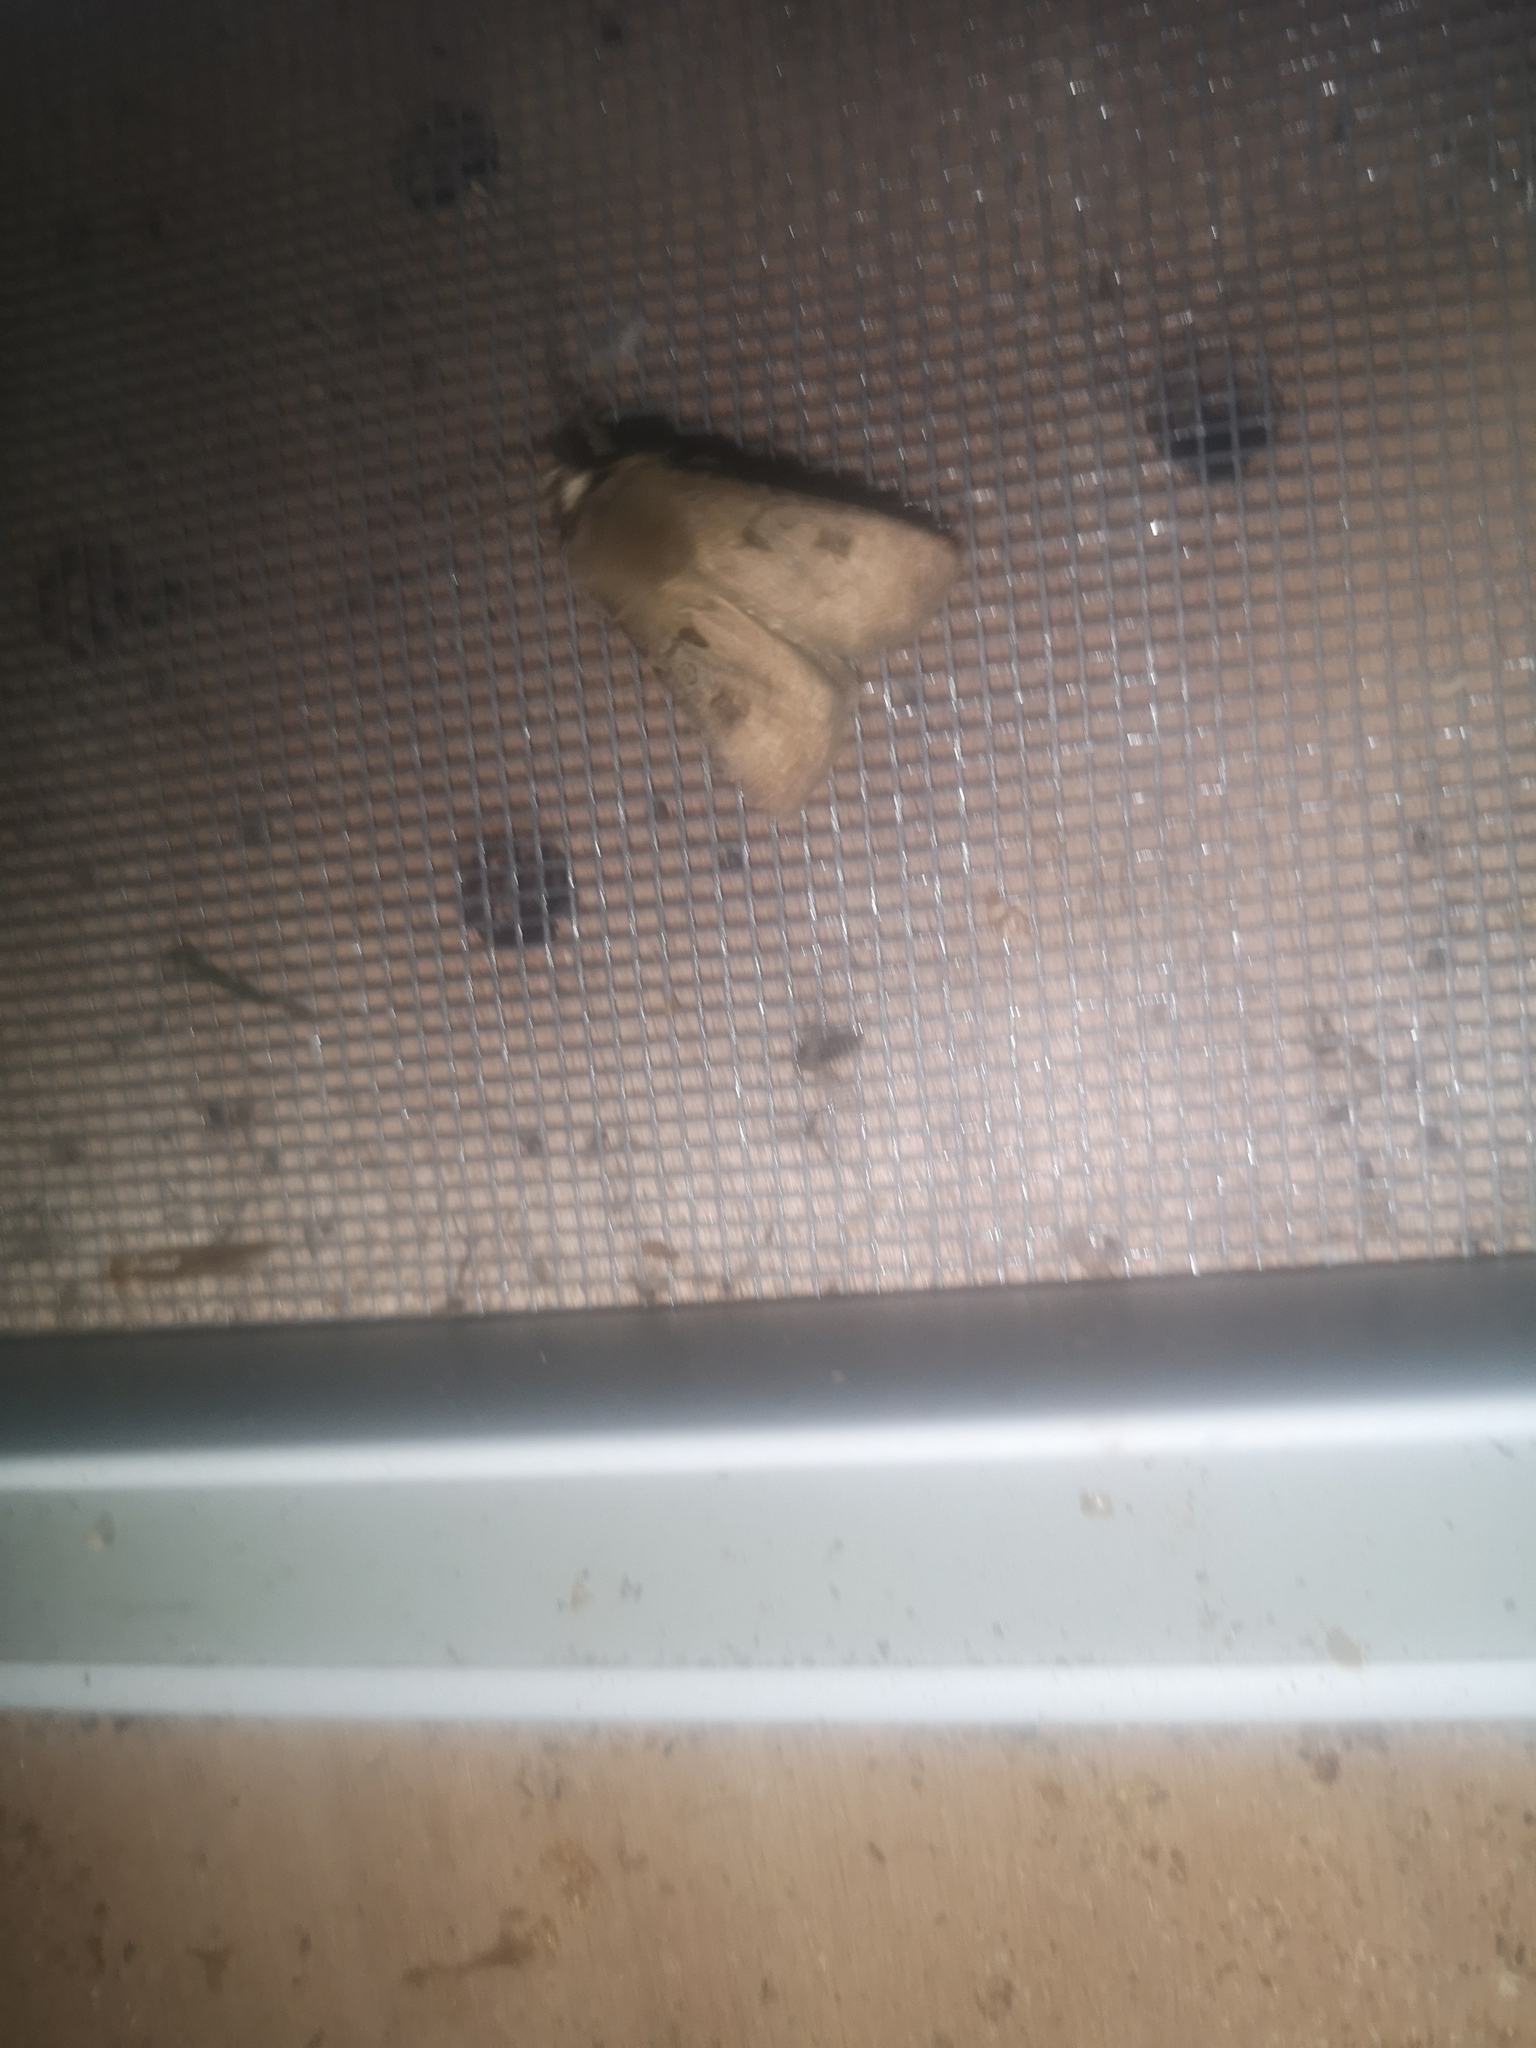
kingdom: Animalia
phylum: Arthropoda
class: Insecta
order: Lepidoptera
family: Noctuidae
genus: Agrotis
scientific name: Agrotis exclamationis
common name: Heart and dart
